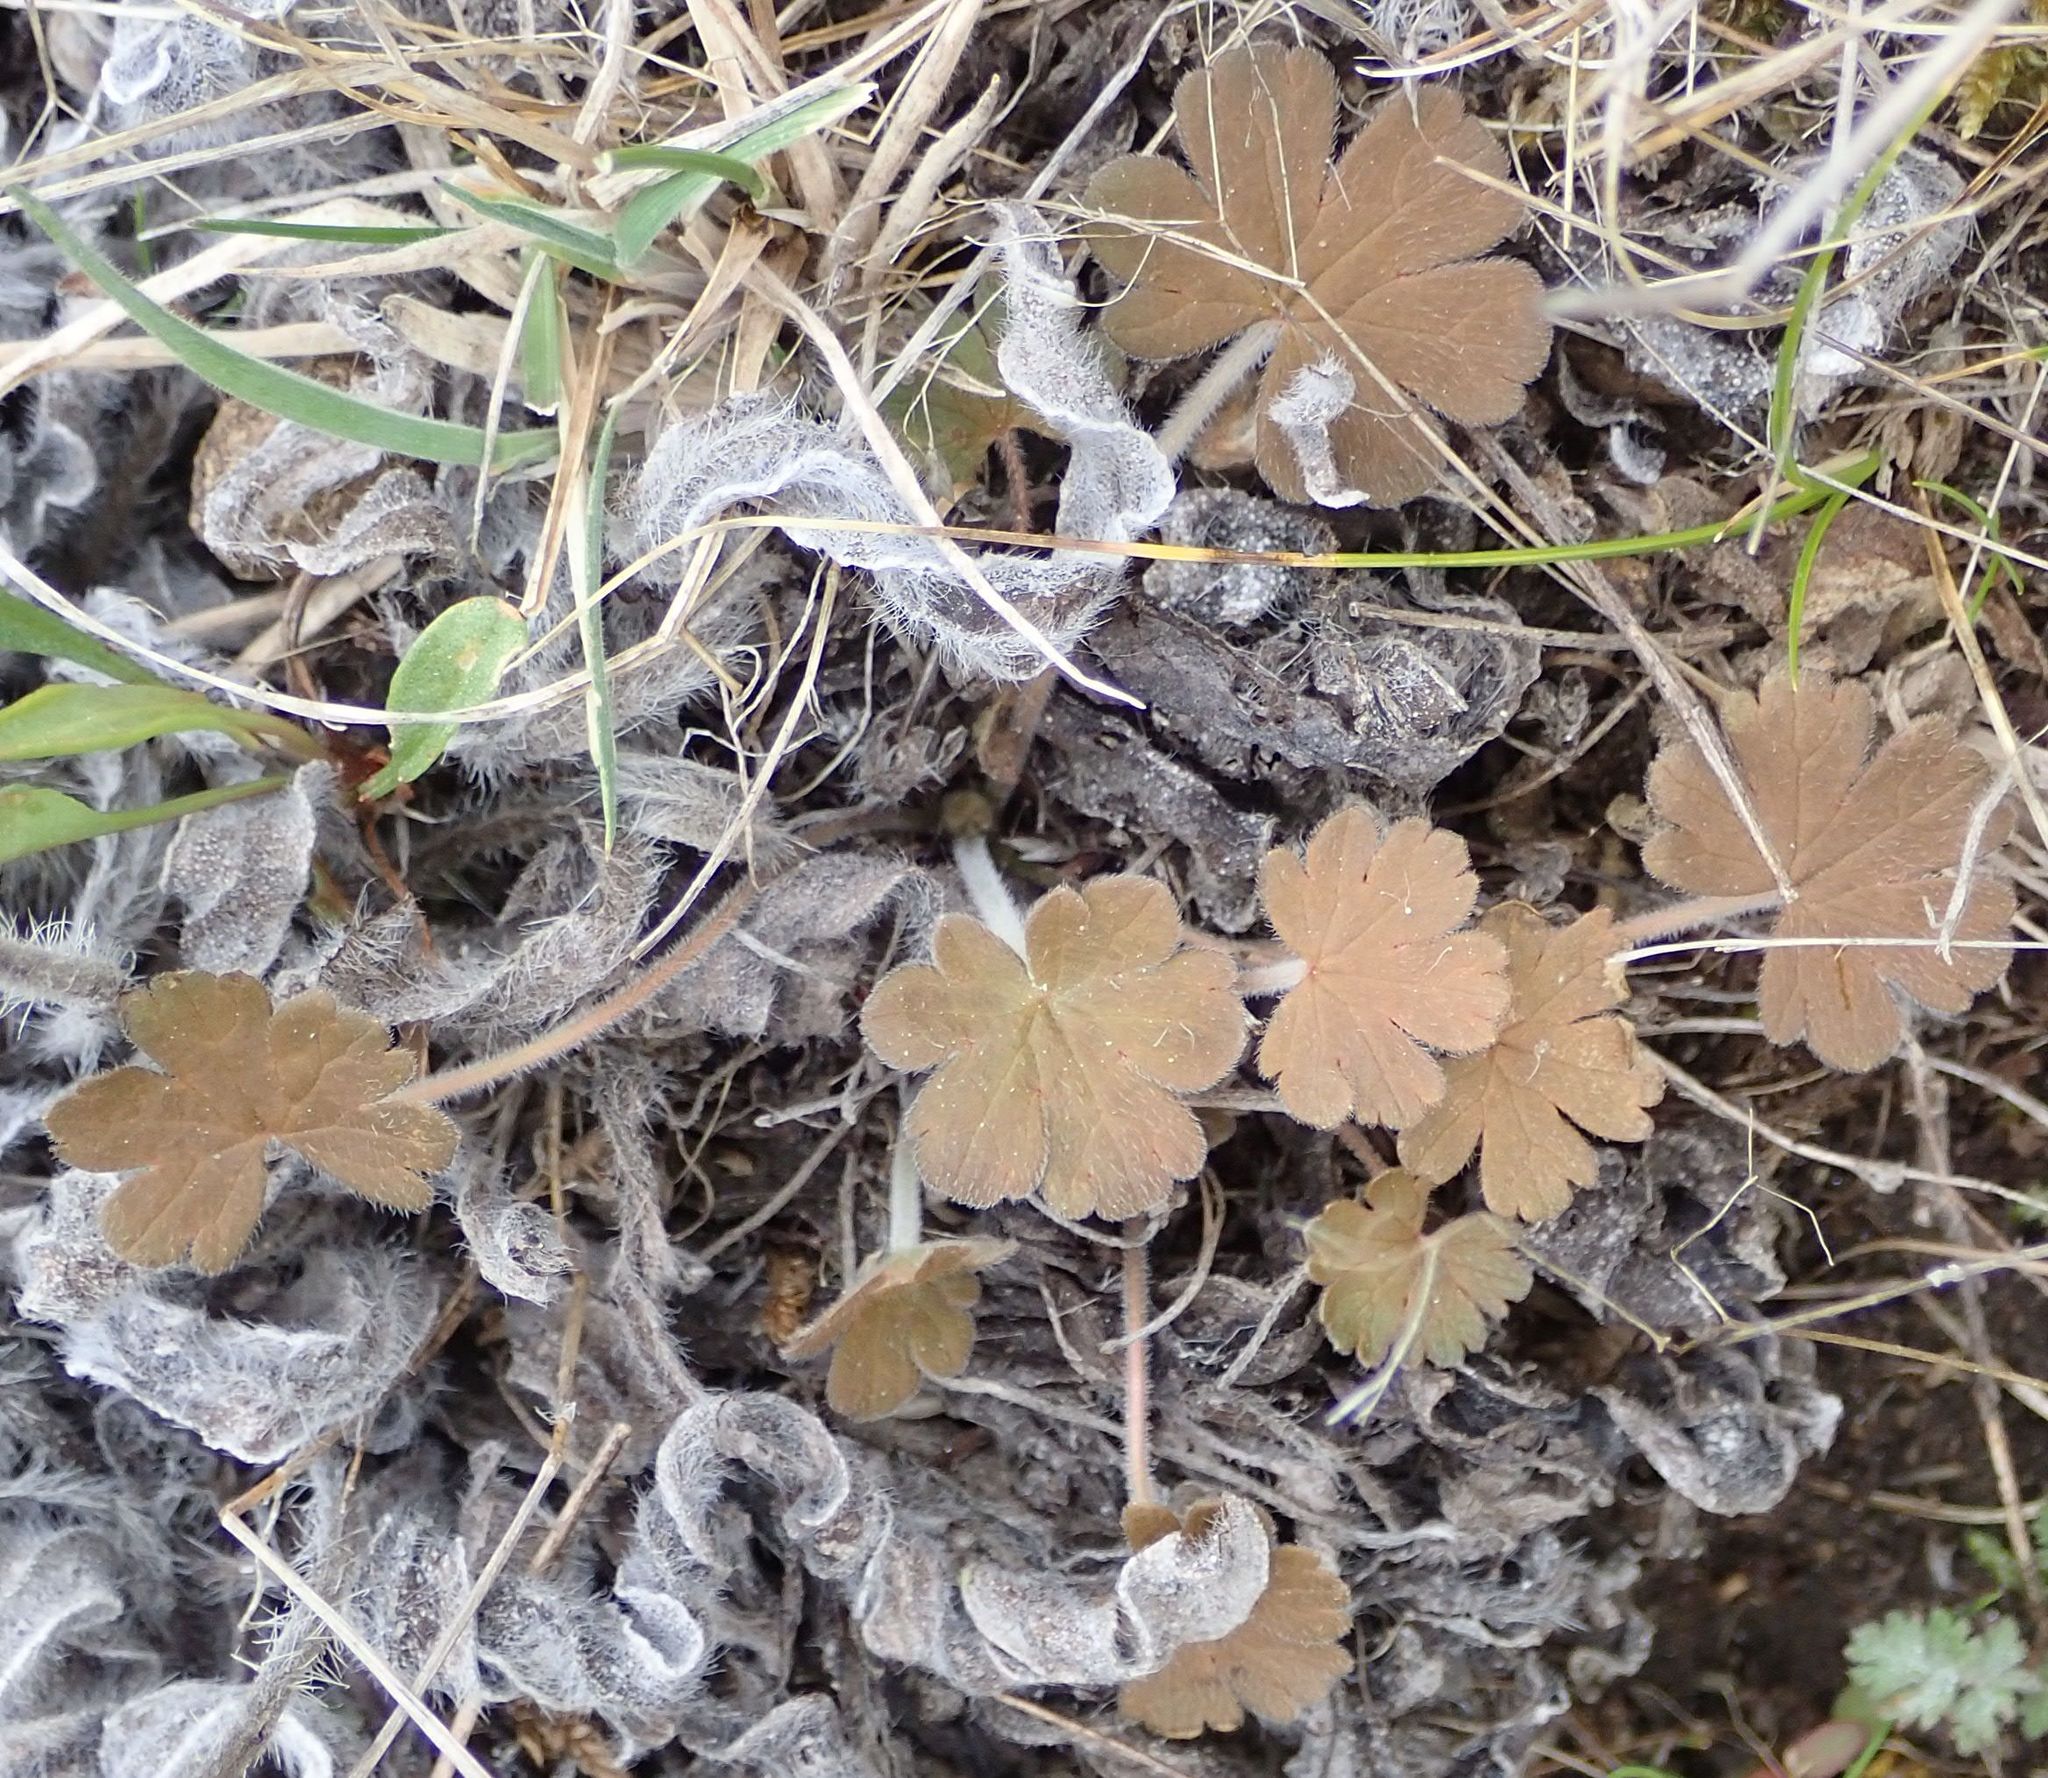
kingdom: Plantae
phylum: Tracheophyta
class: Magnoliopsida
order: Geraniales
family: Geraniaceae
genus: Geranium
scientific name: Geranium brevicaule
